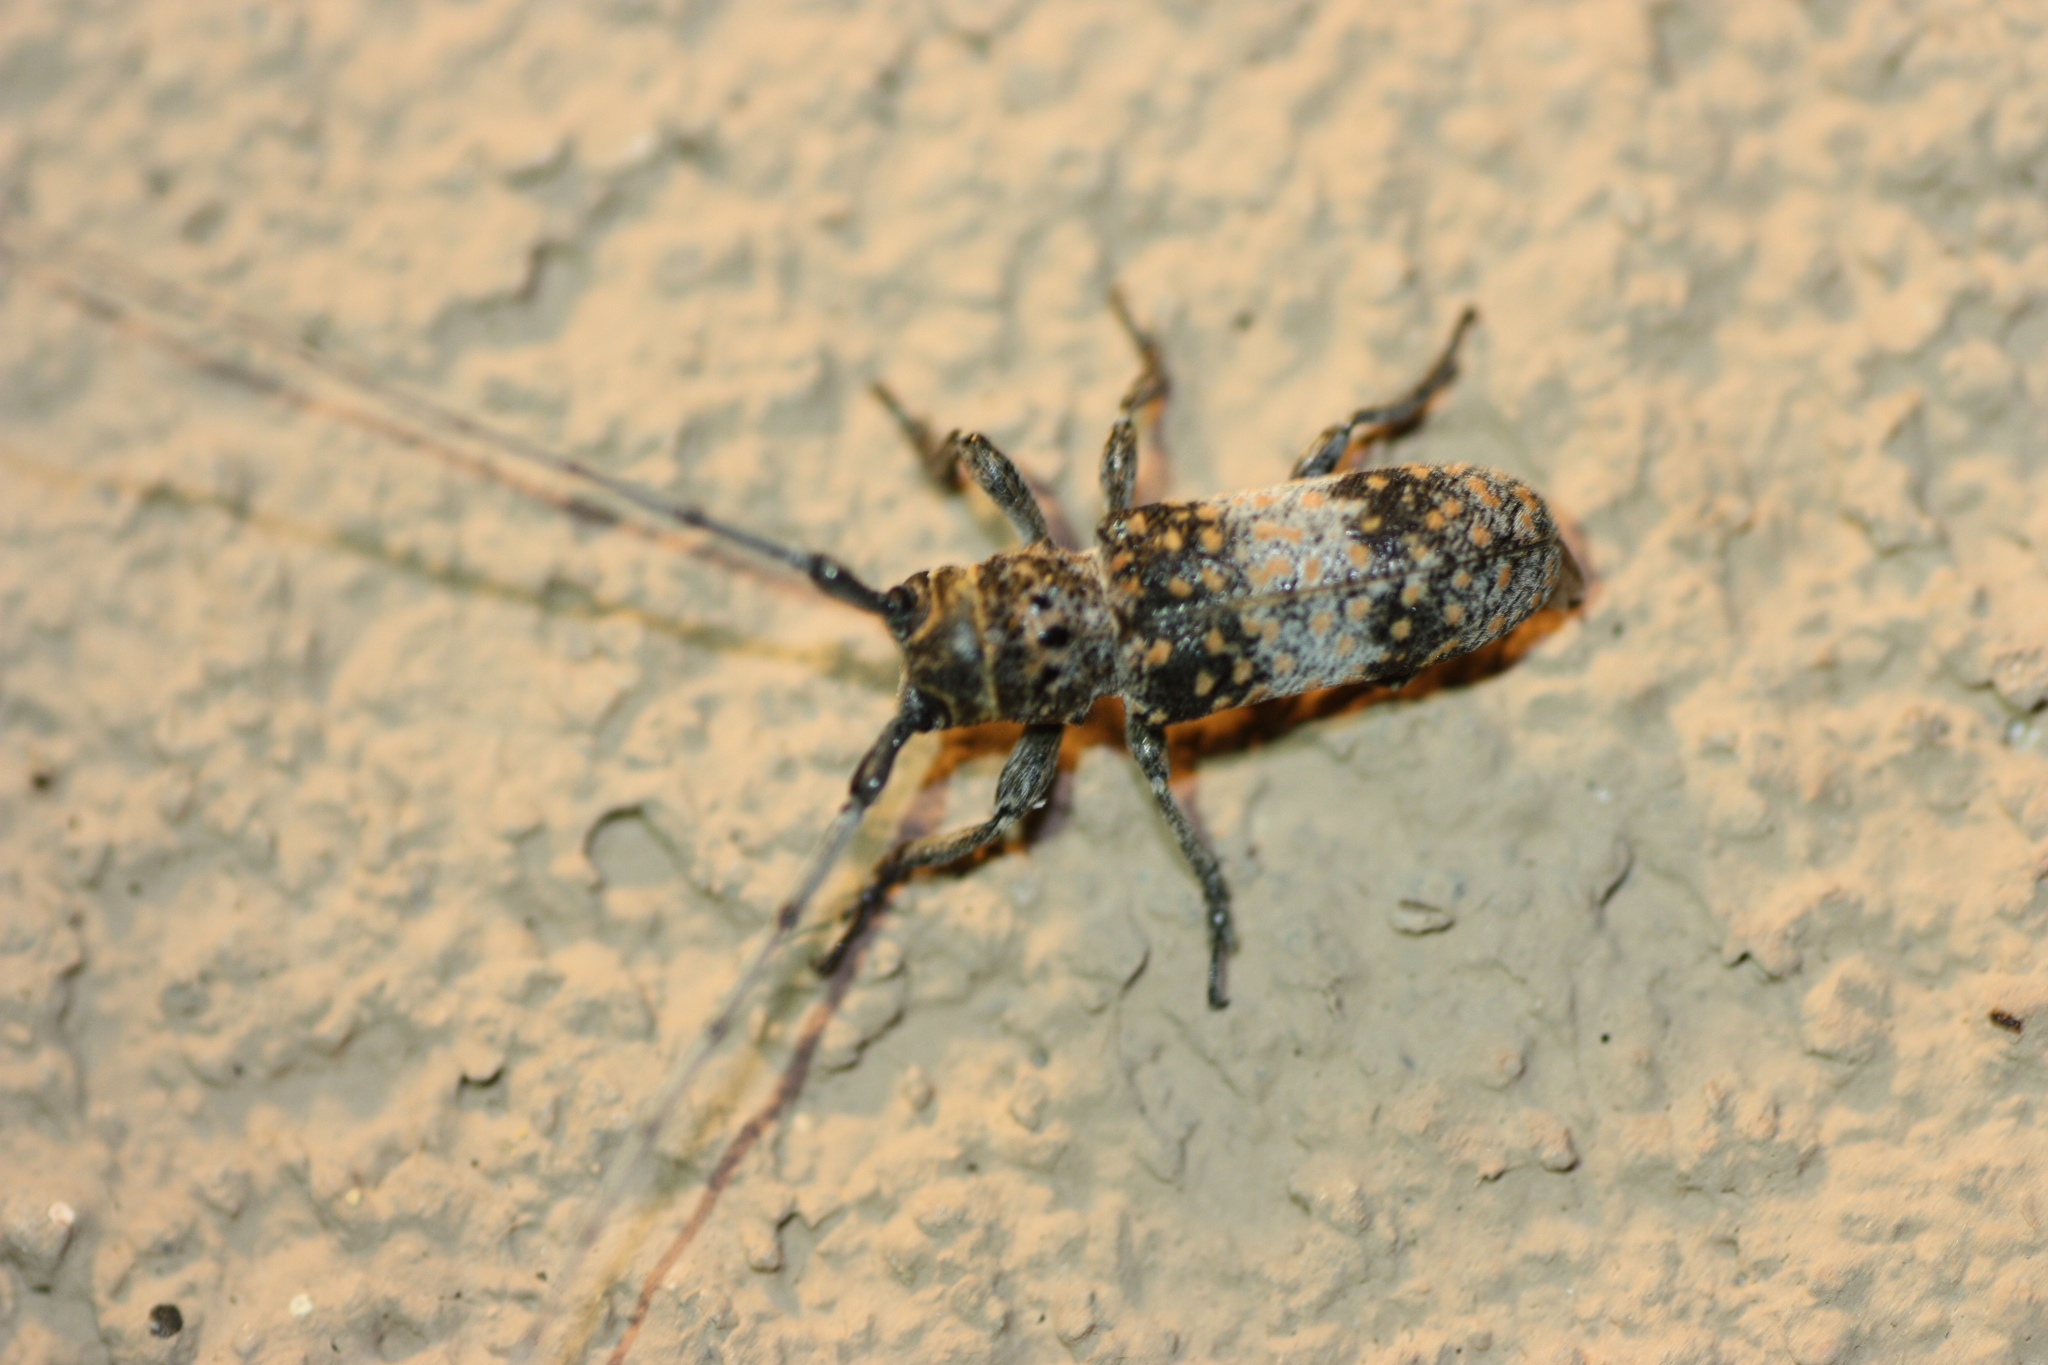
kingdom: Animalia
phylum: Arthropoda
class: Insecta
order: Coleoptera
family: Cerambycidae
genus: Oncideres
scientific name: Oncideres rhodosticta
